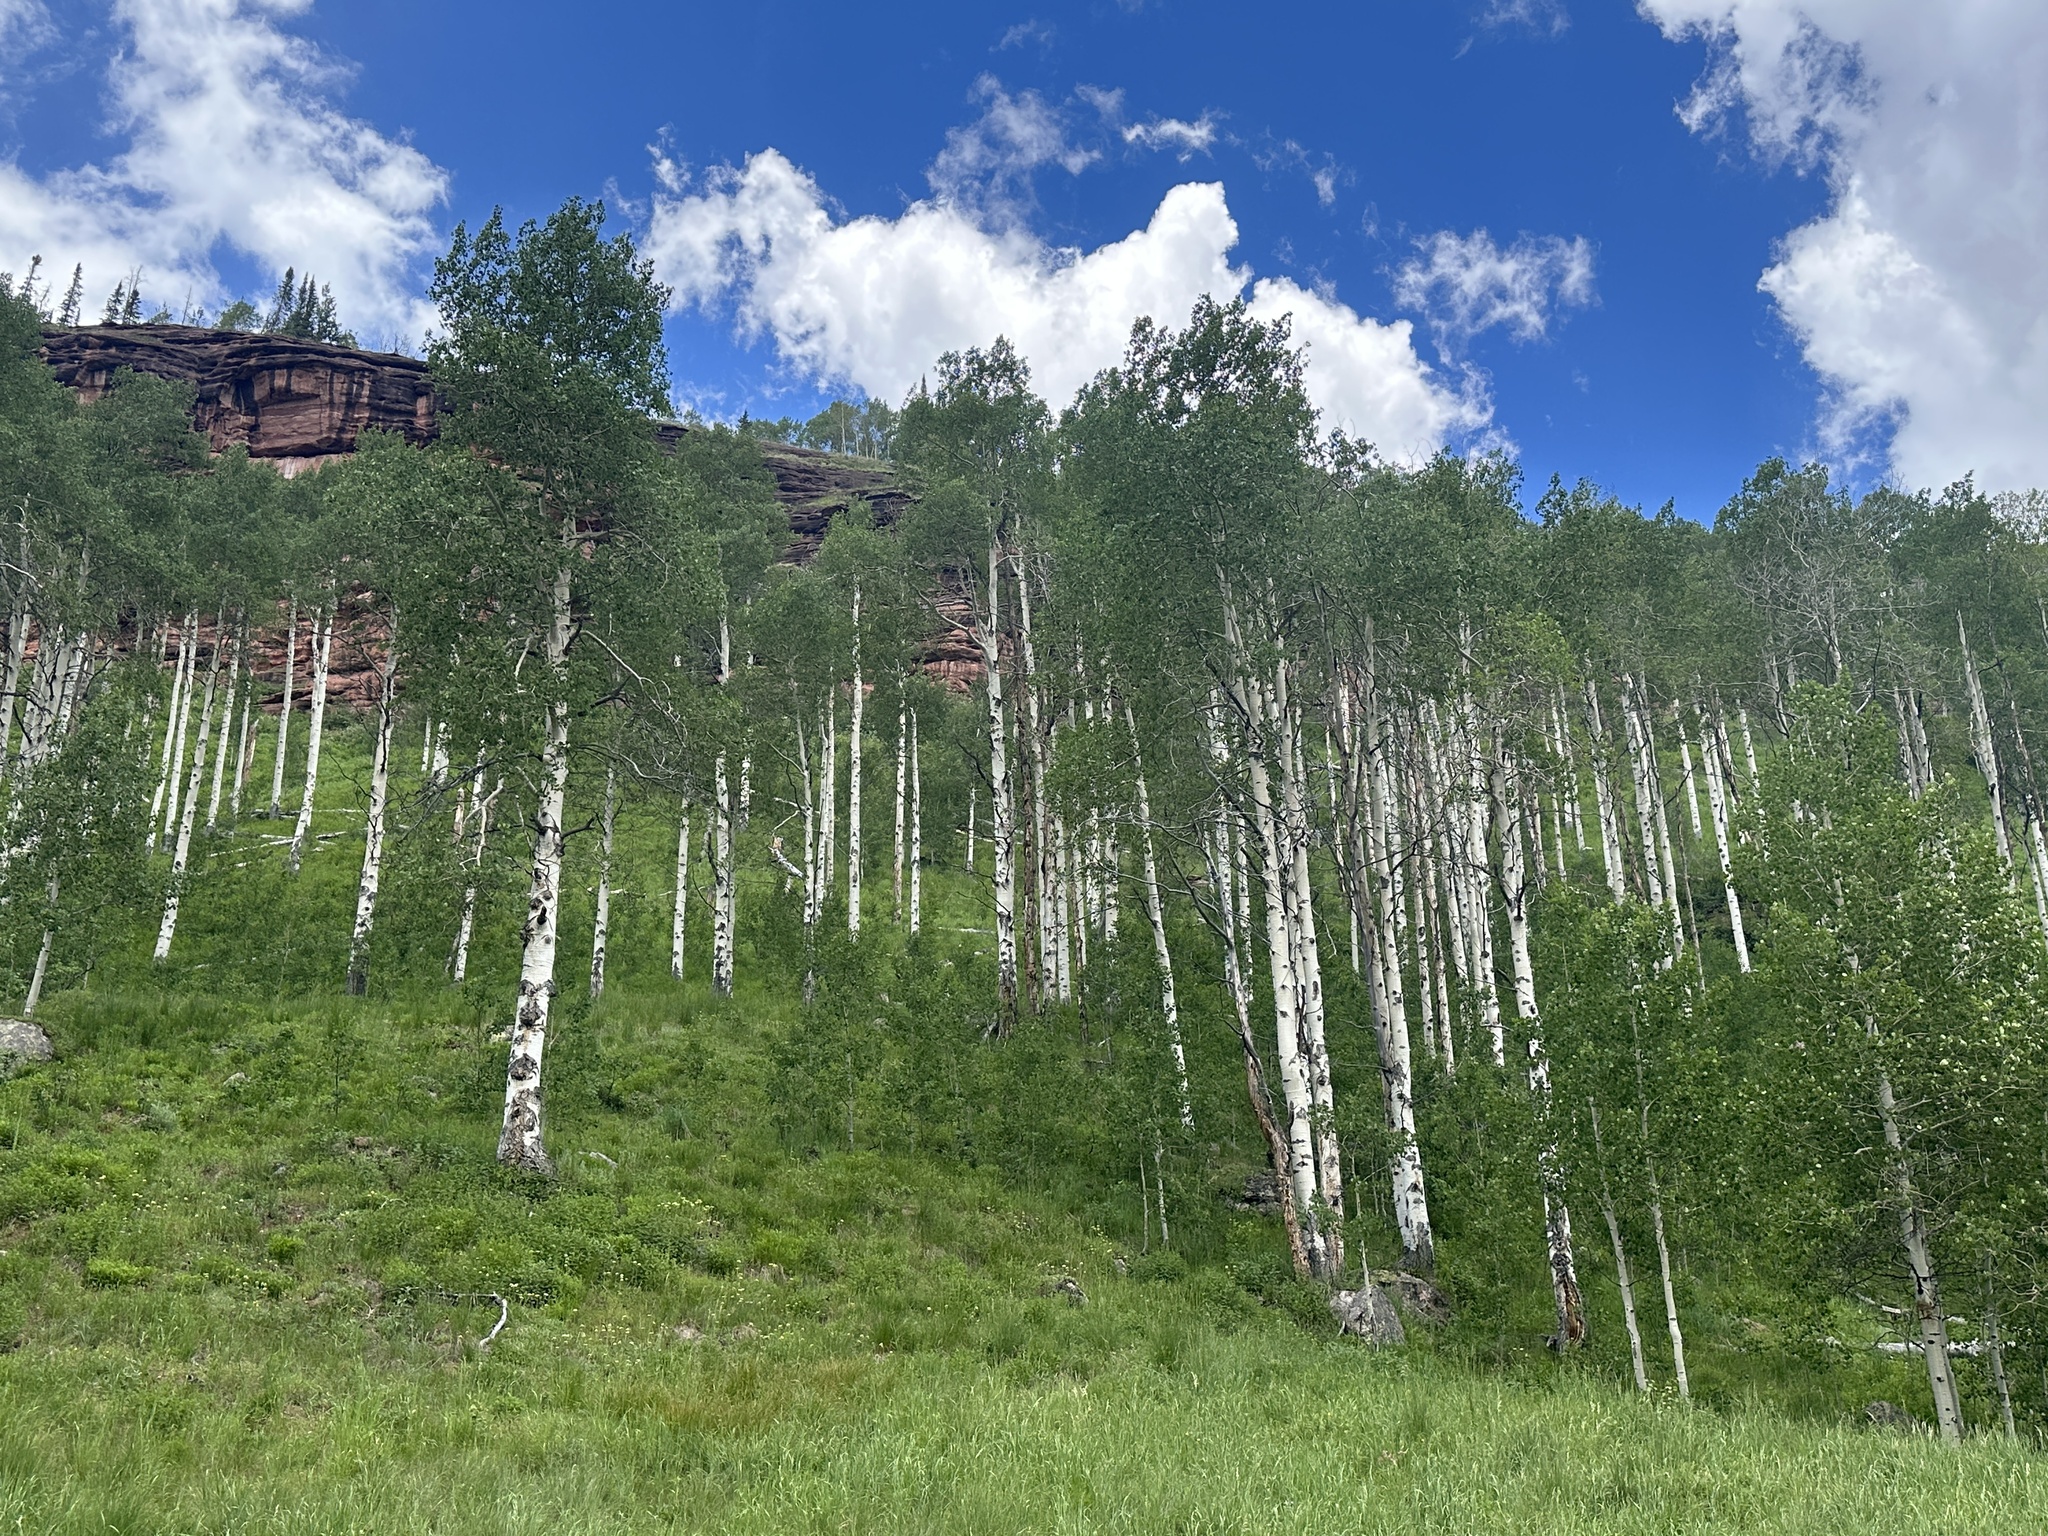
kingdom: Plantae
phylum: Tracheophyta
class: Magnoliopsida
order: Malpighiales
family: Salicaceae
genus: Populus
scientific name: Populus tremuloides
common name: Quaking aspen
